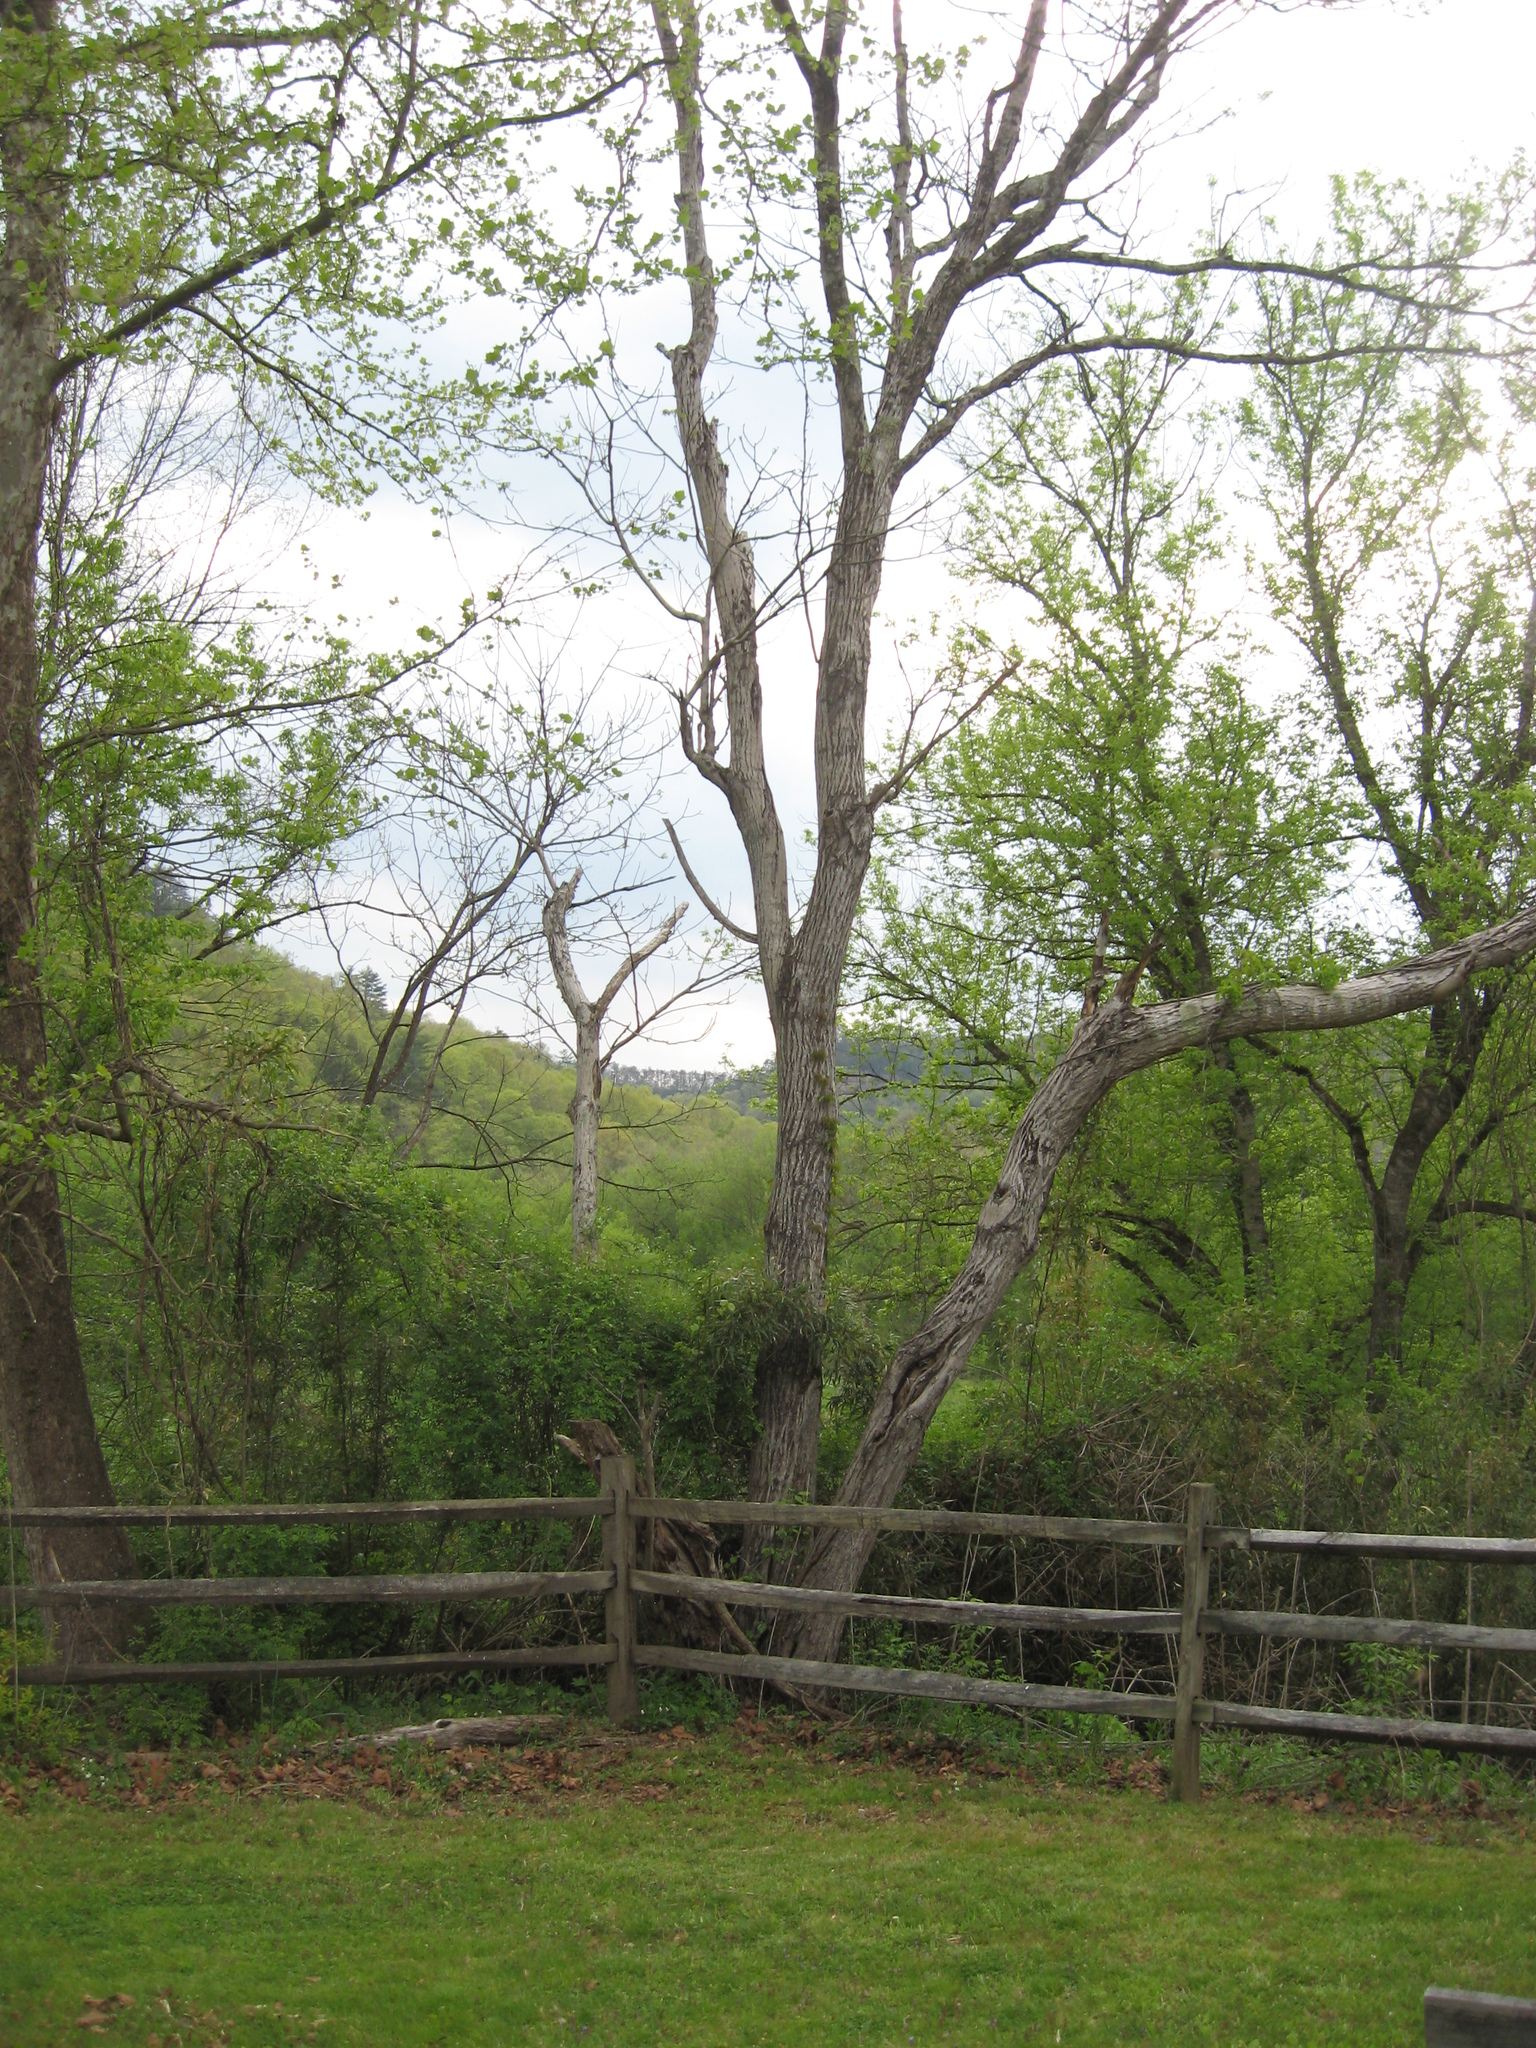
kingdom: Plantae
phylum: Tracheophyta
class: Magnoliopsida
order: Fagales
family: Juglandaceae
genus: Juglans
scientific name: Juglans cinerea
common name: Butternut
